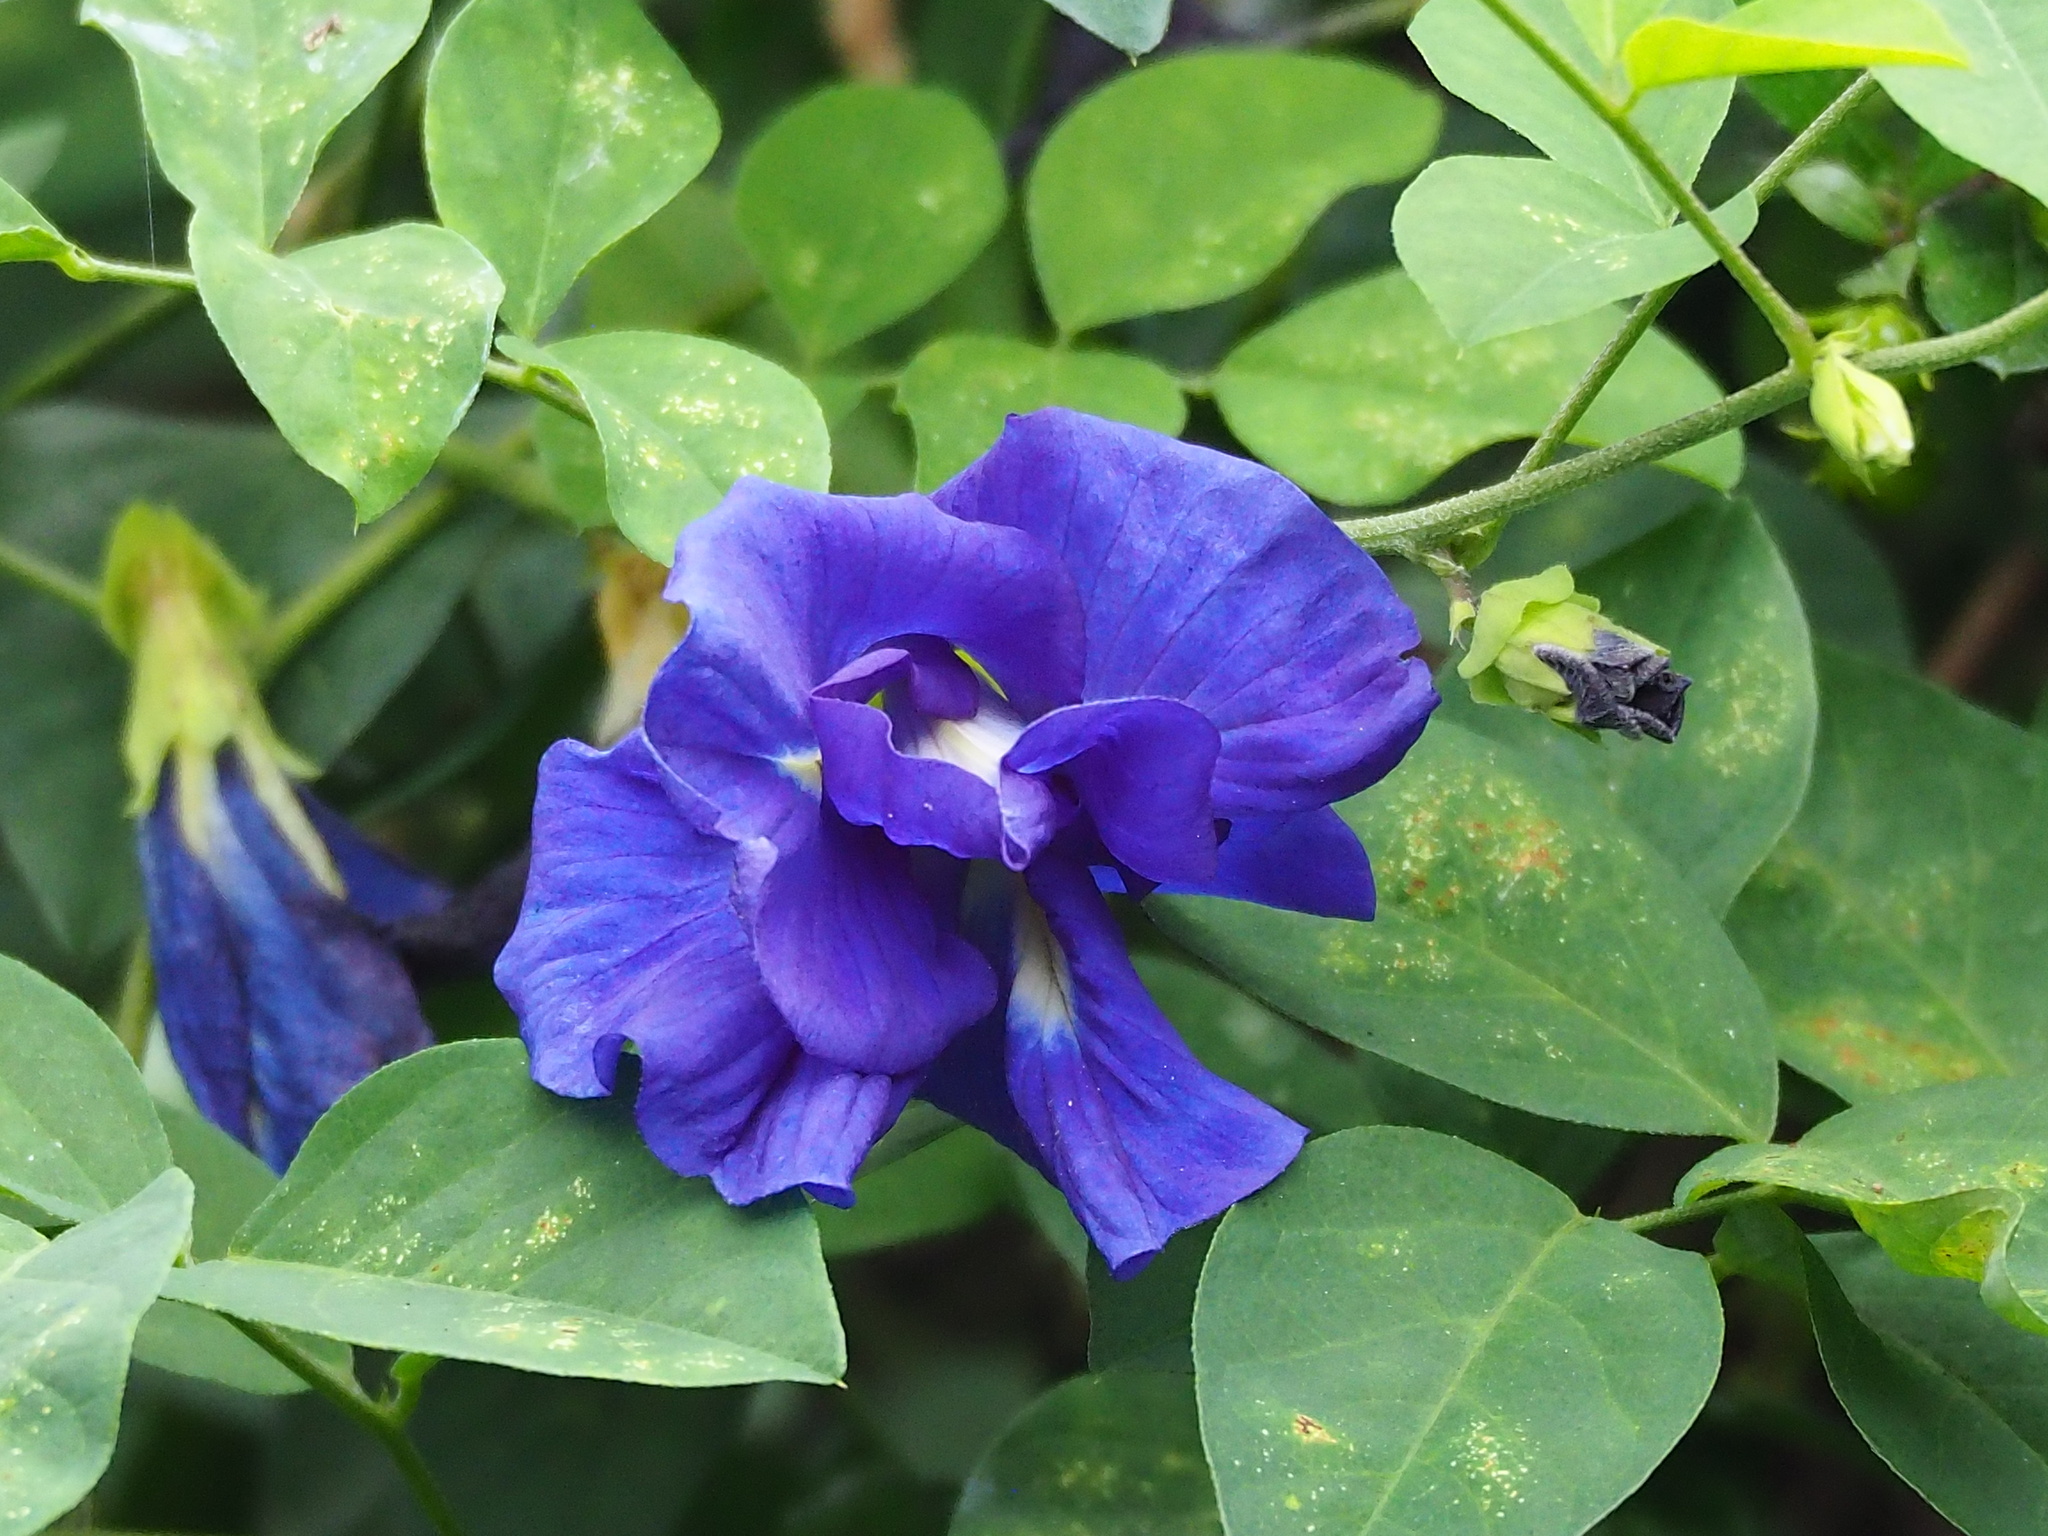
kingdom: Plantae
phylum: Tracheophyta
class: Magnoliopsida
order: Fabales
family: Fabaceae
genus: Clitoria
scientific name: Clitoria ternatea
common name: Asian pigeonwings
